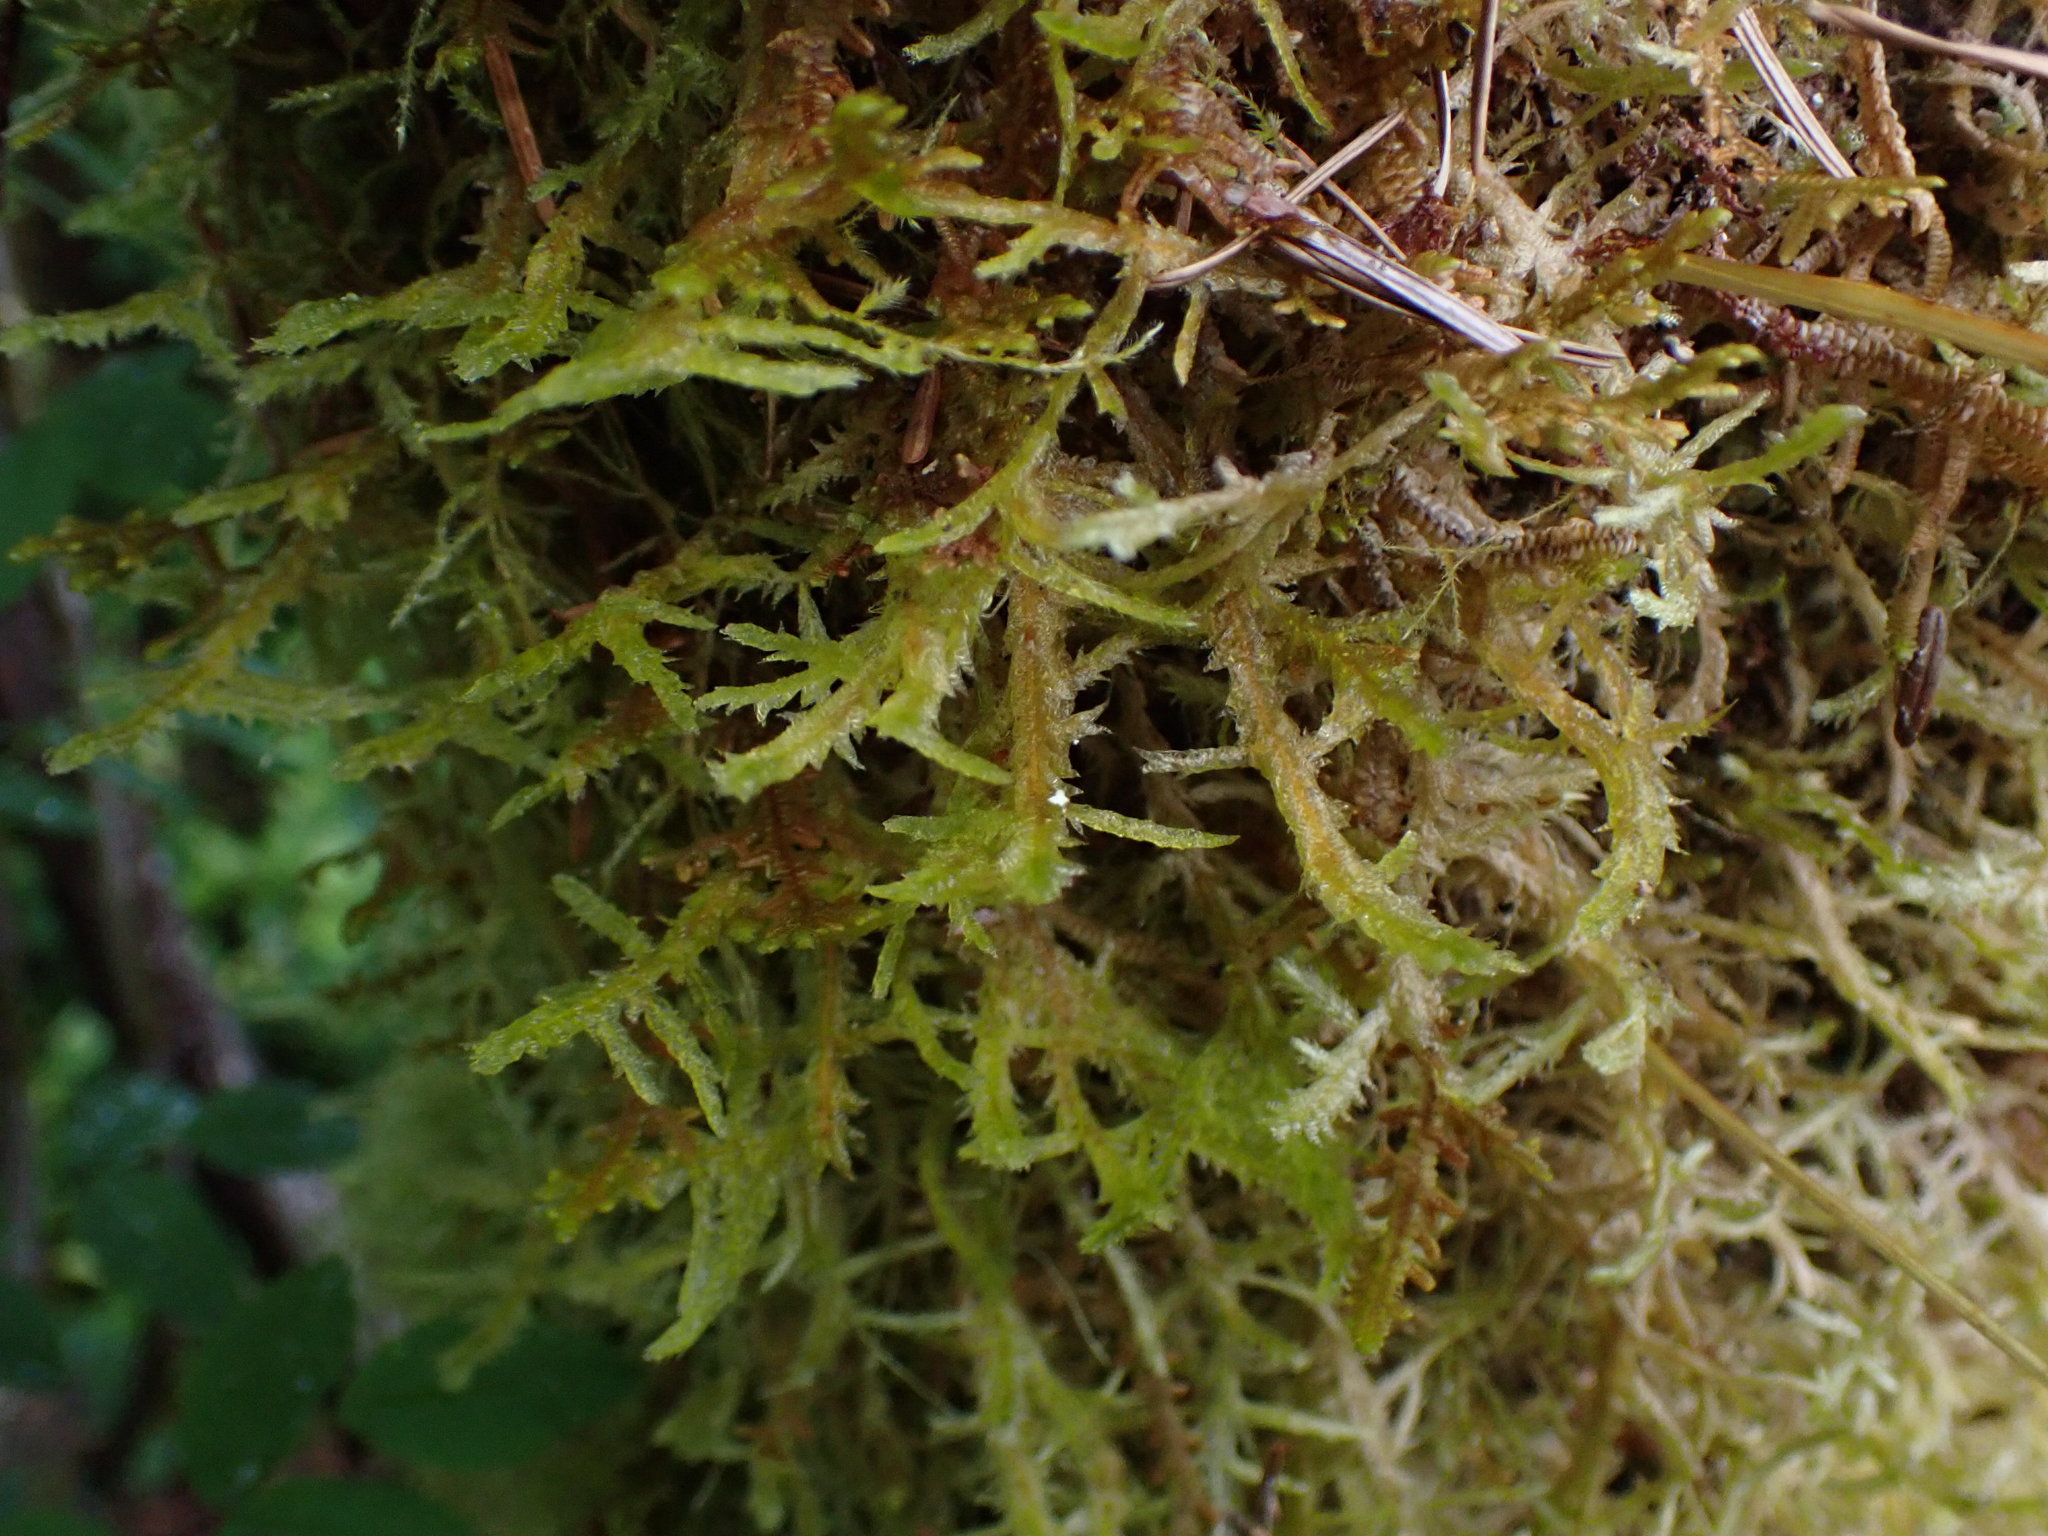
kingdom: Plantae
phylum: Bryophyta
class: Bryopsida
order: Hypnales
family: Neckeraceae
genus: Neckera
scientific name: Neckera douglasii
